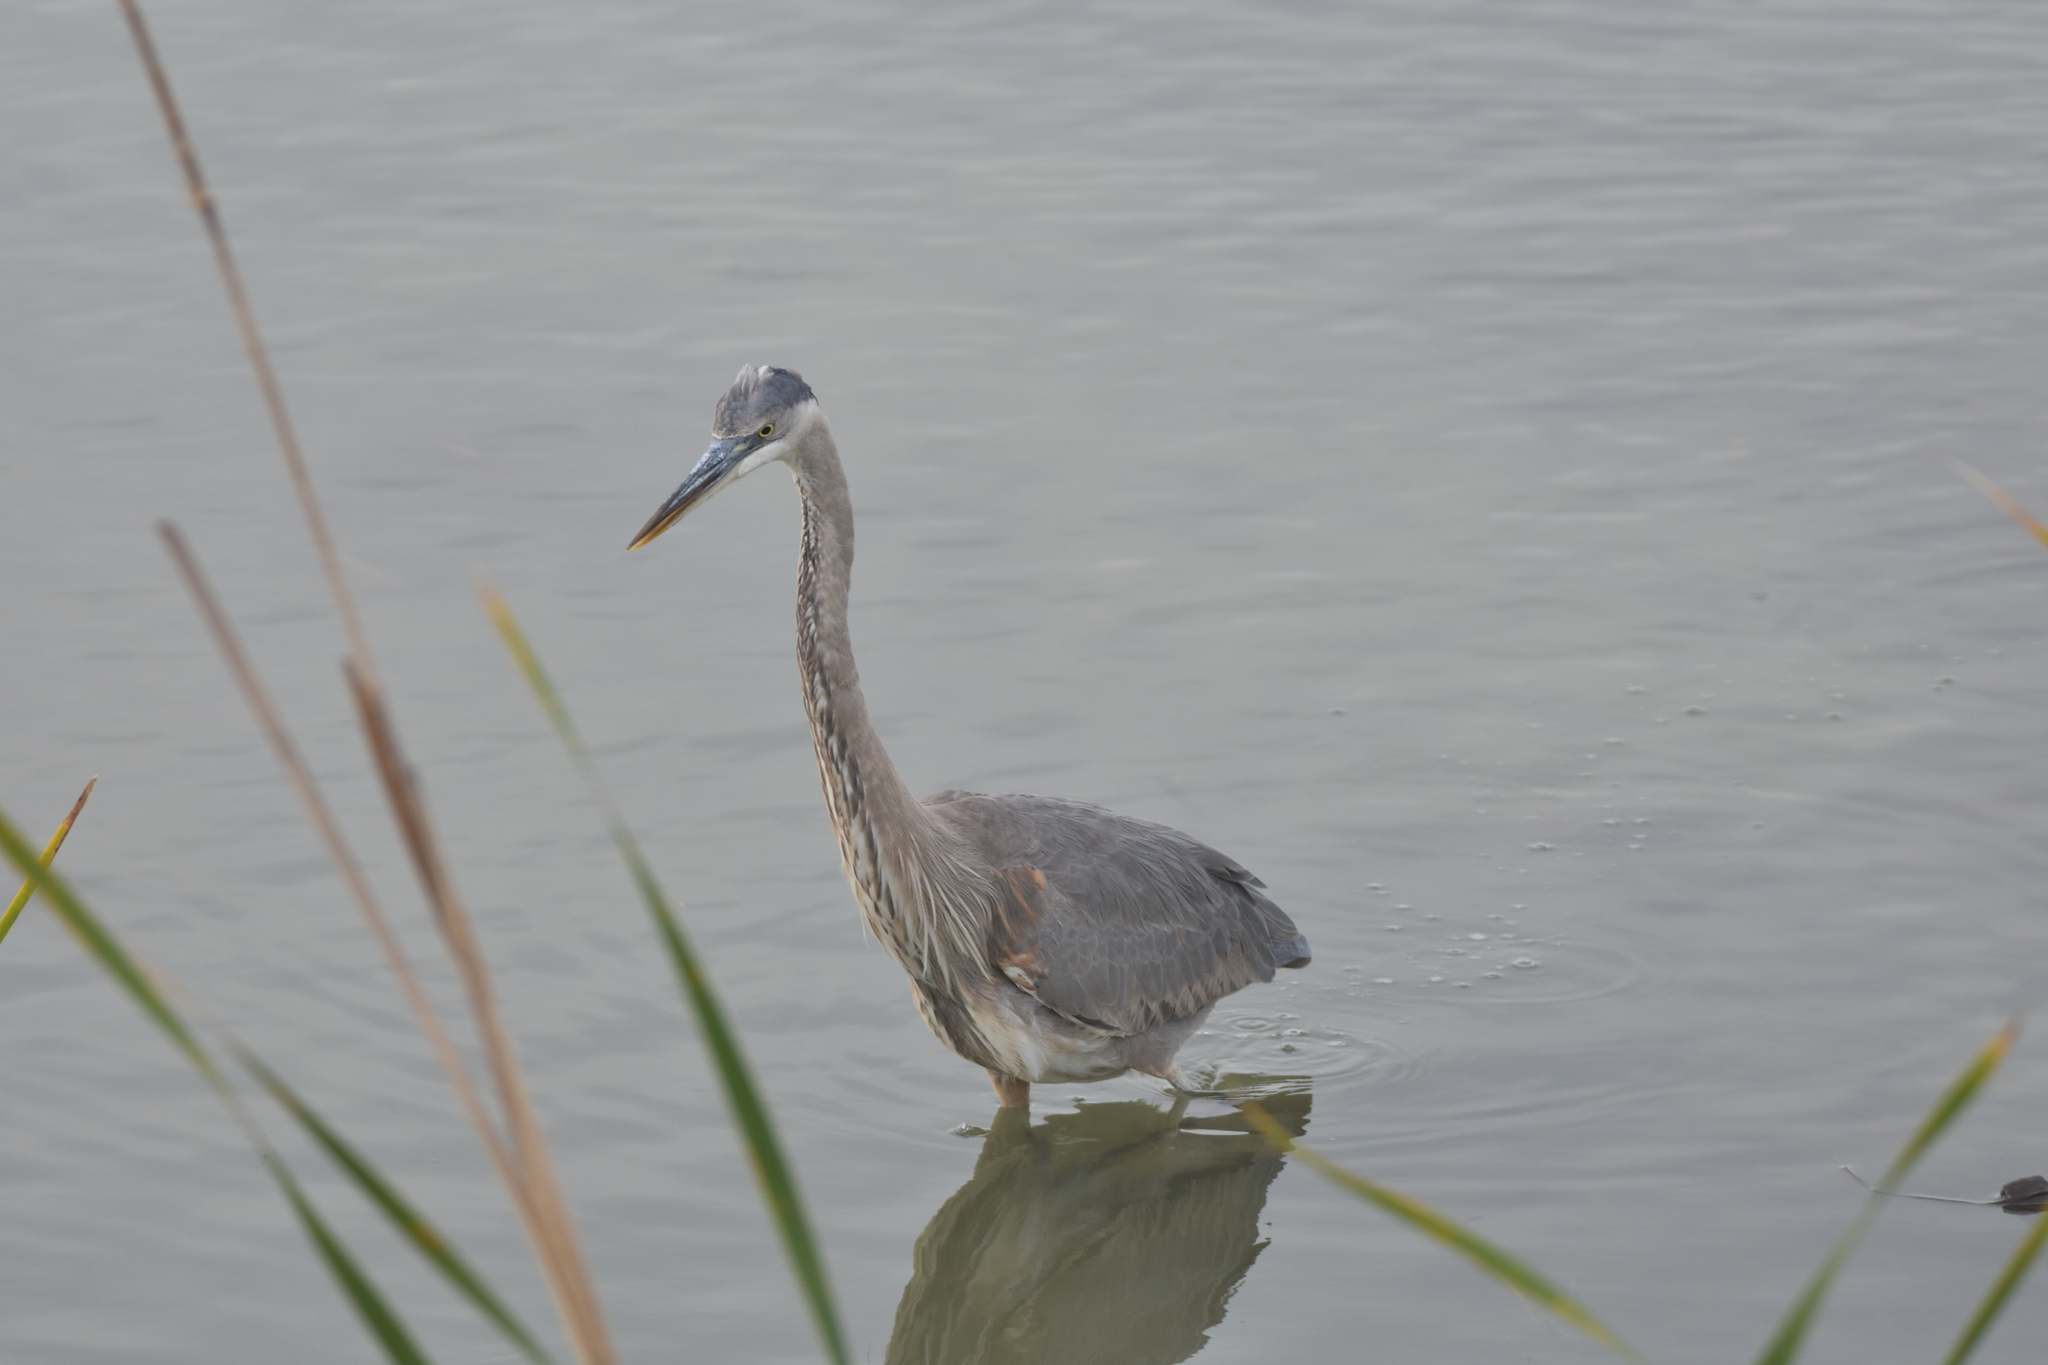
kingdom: Animalia
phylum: Chordata
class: Aves
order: Pelecaniformes
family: Ardeidae
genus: Ardea
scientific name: Ardea herodias
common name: Great blue heron
